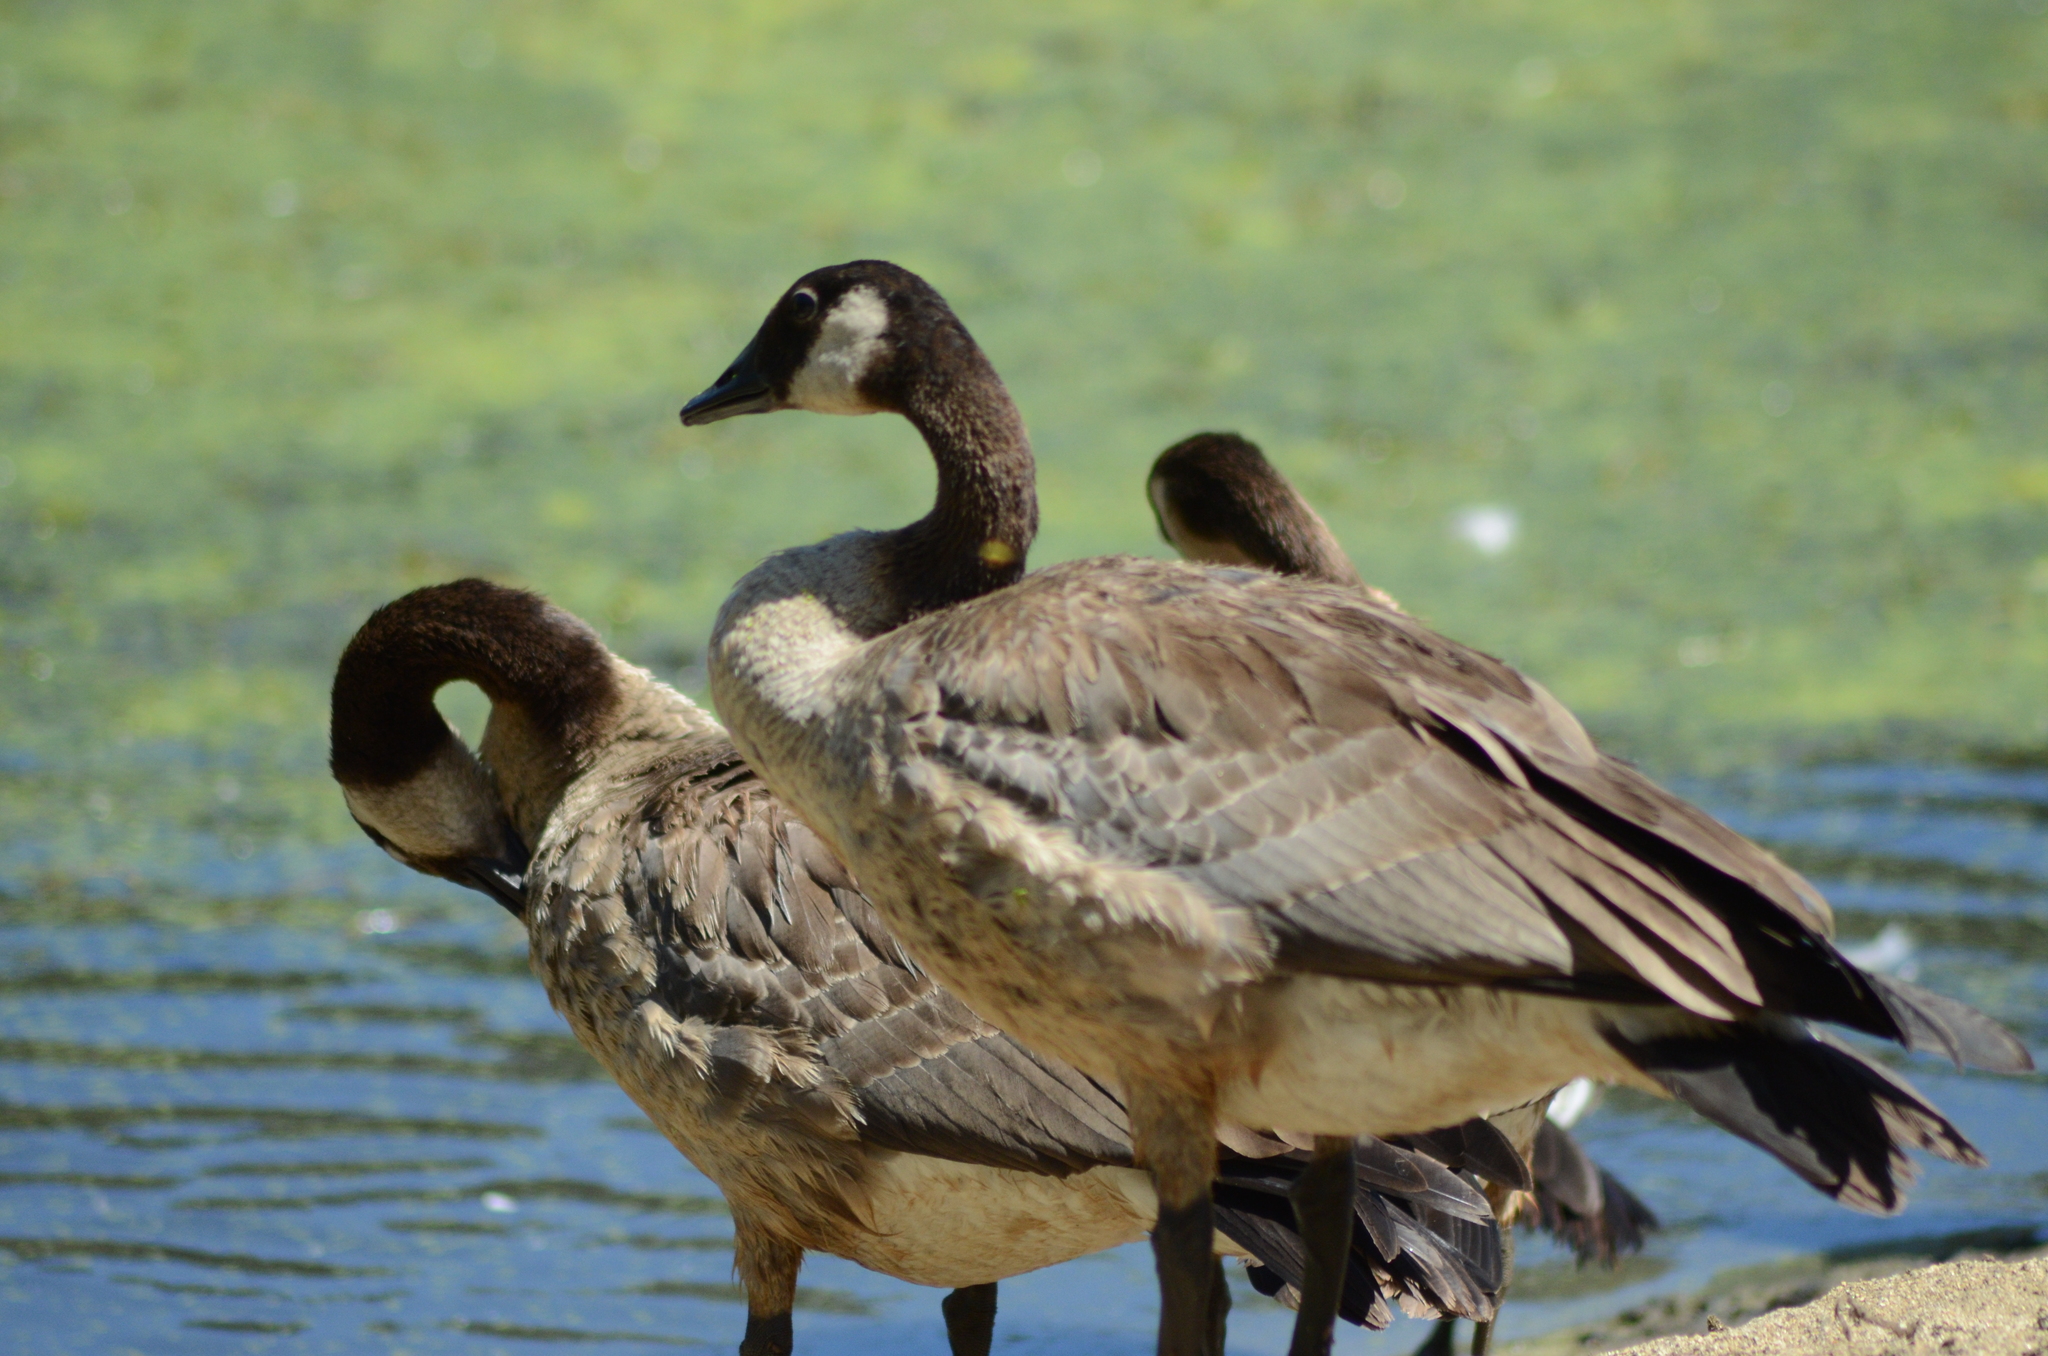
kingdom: Animalia
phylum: Chordata
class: Aves
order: Anseriformes
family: Anatidae
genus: Branta
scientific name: Branta canadensis
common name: Canada goose
